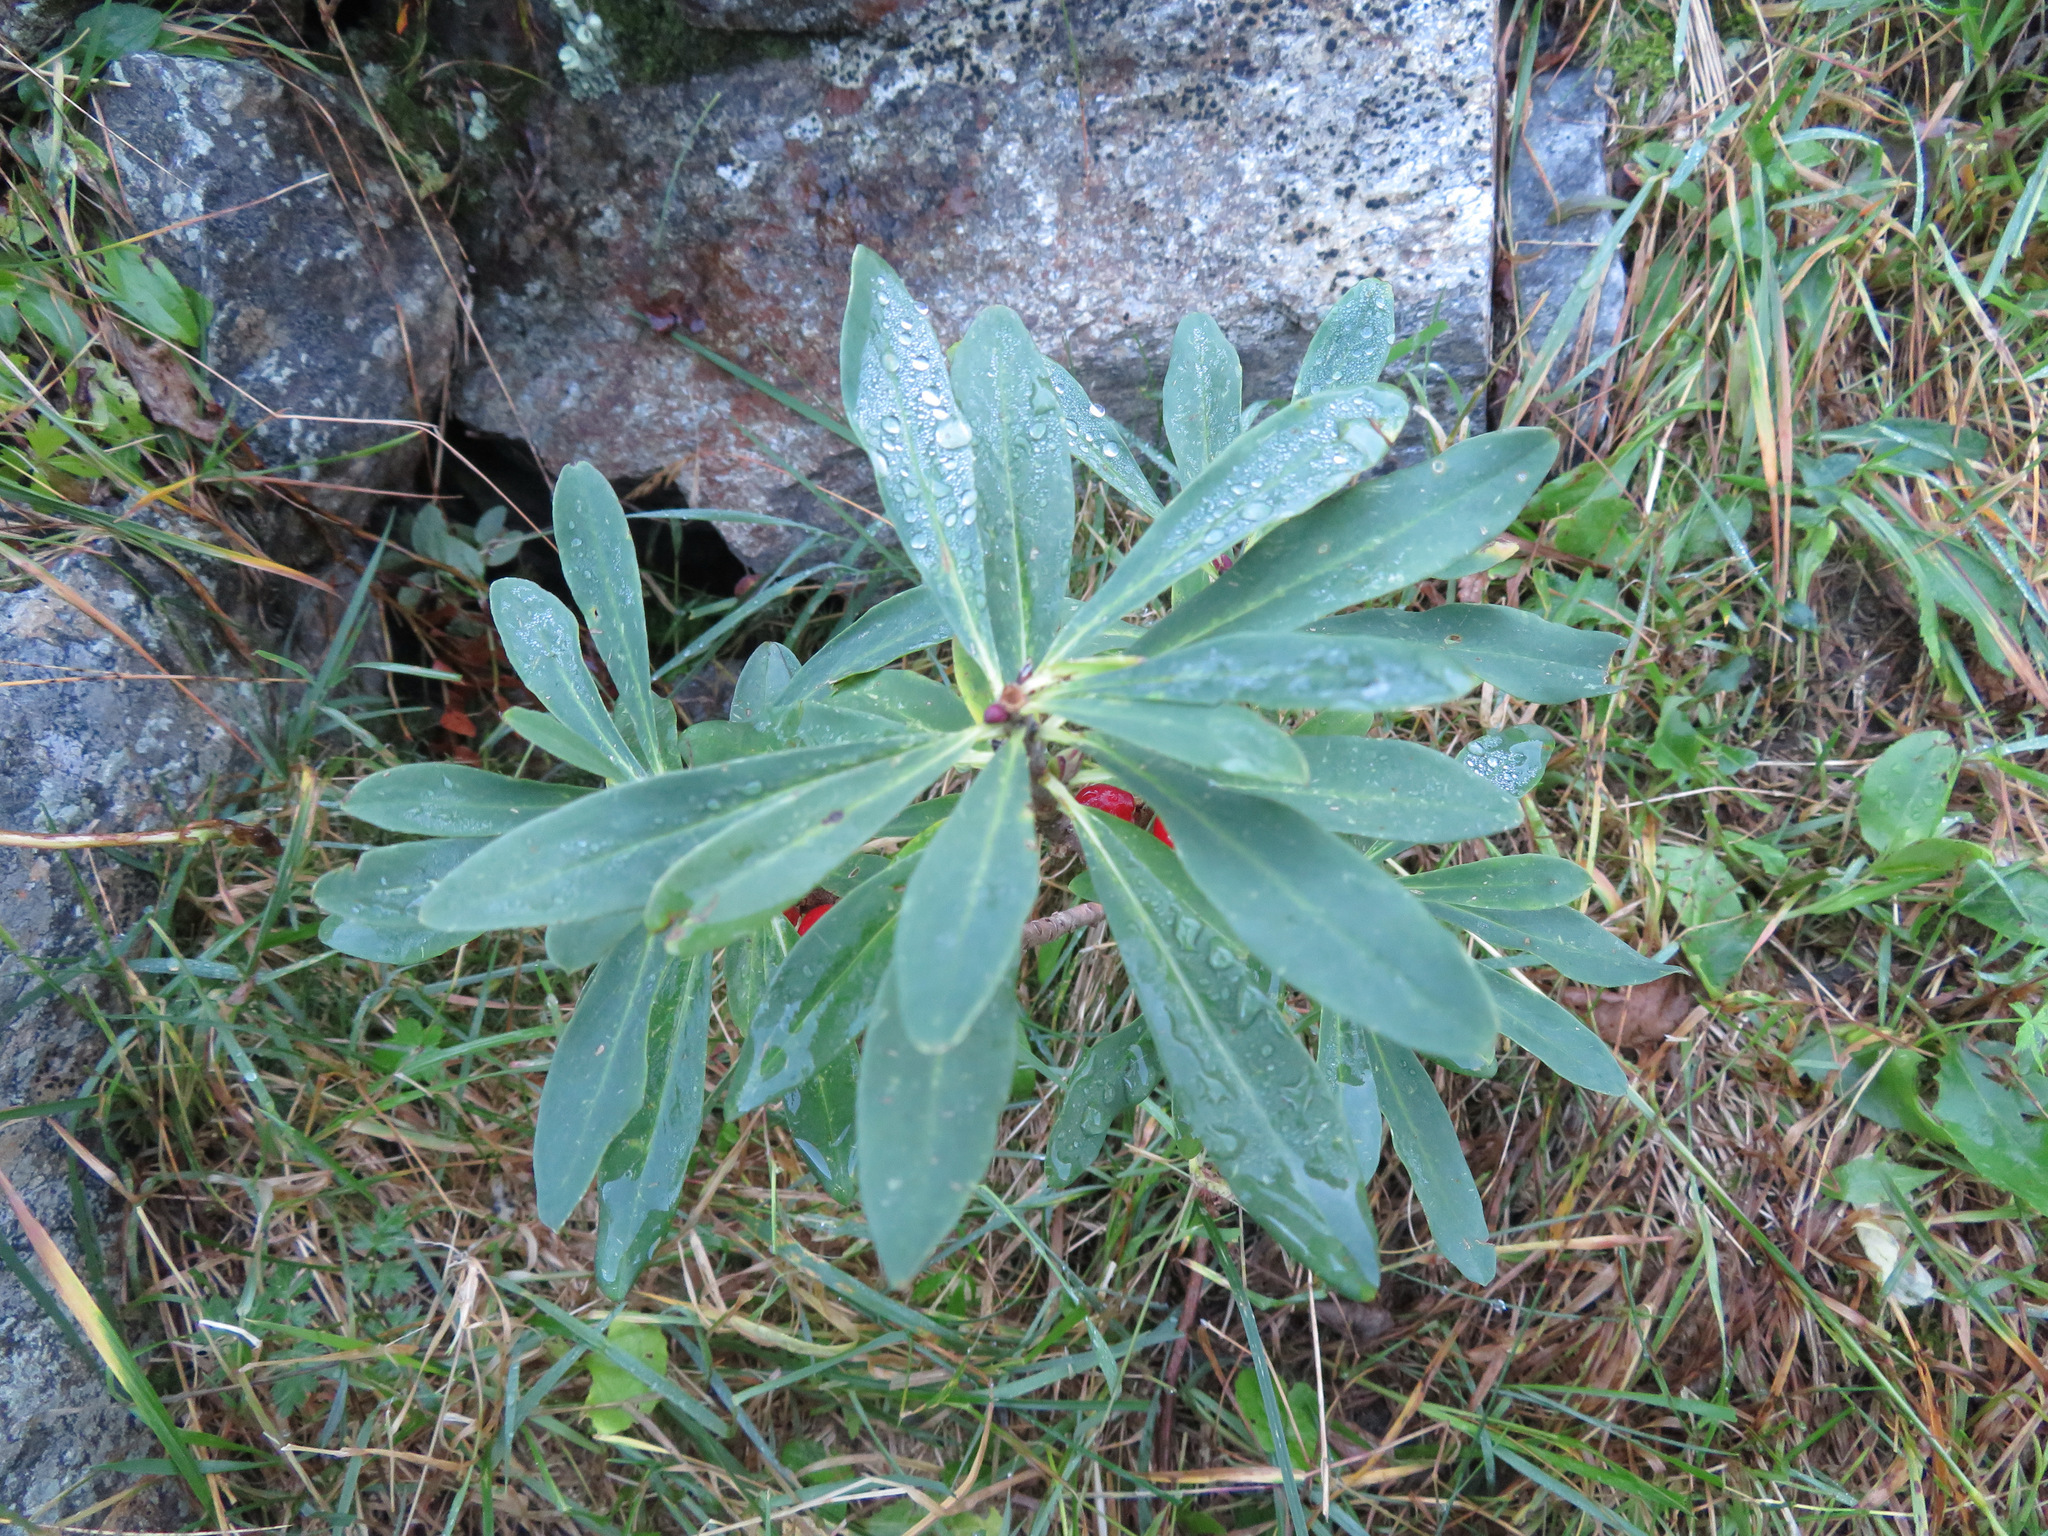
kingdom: Plantae
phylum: Tracheophyta
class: Magnoliopsida
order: Malvales
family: Thymelaeaceae
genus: Daphne
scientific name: Daphne mezereum
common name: Mezereon
